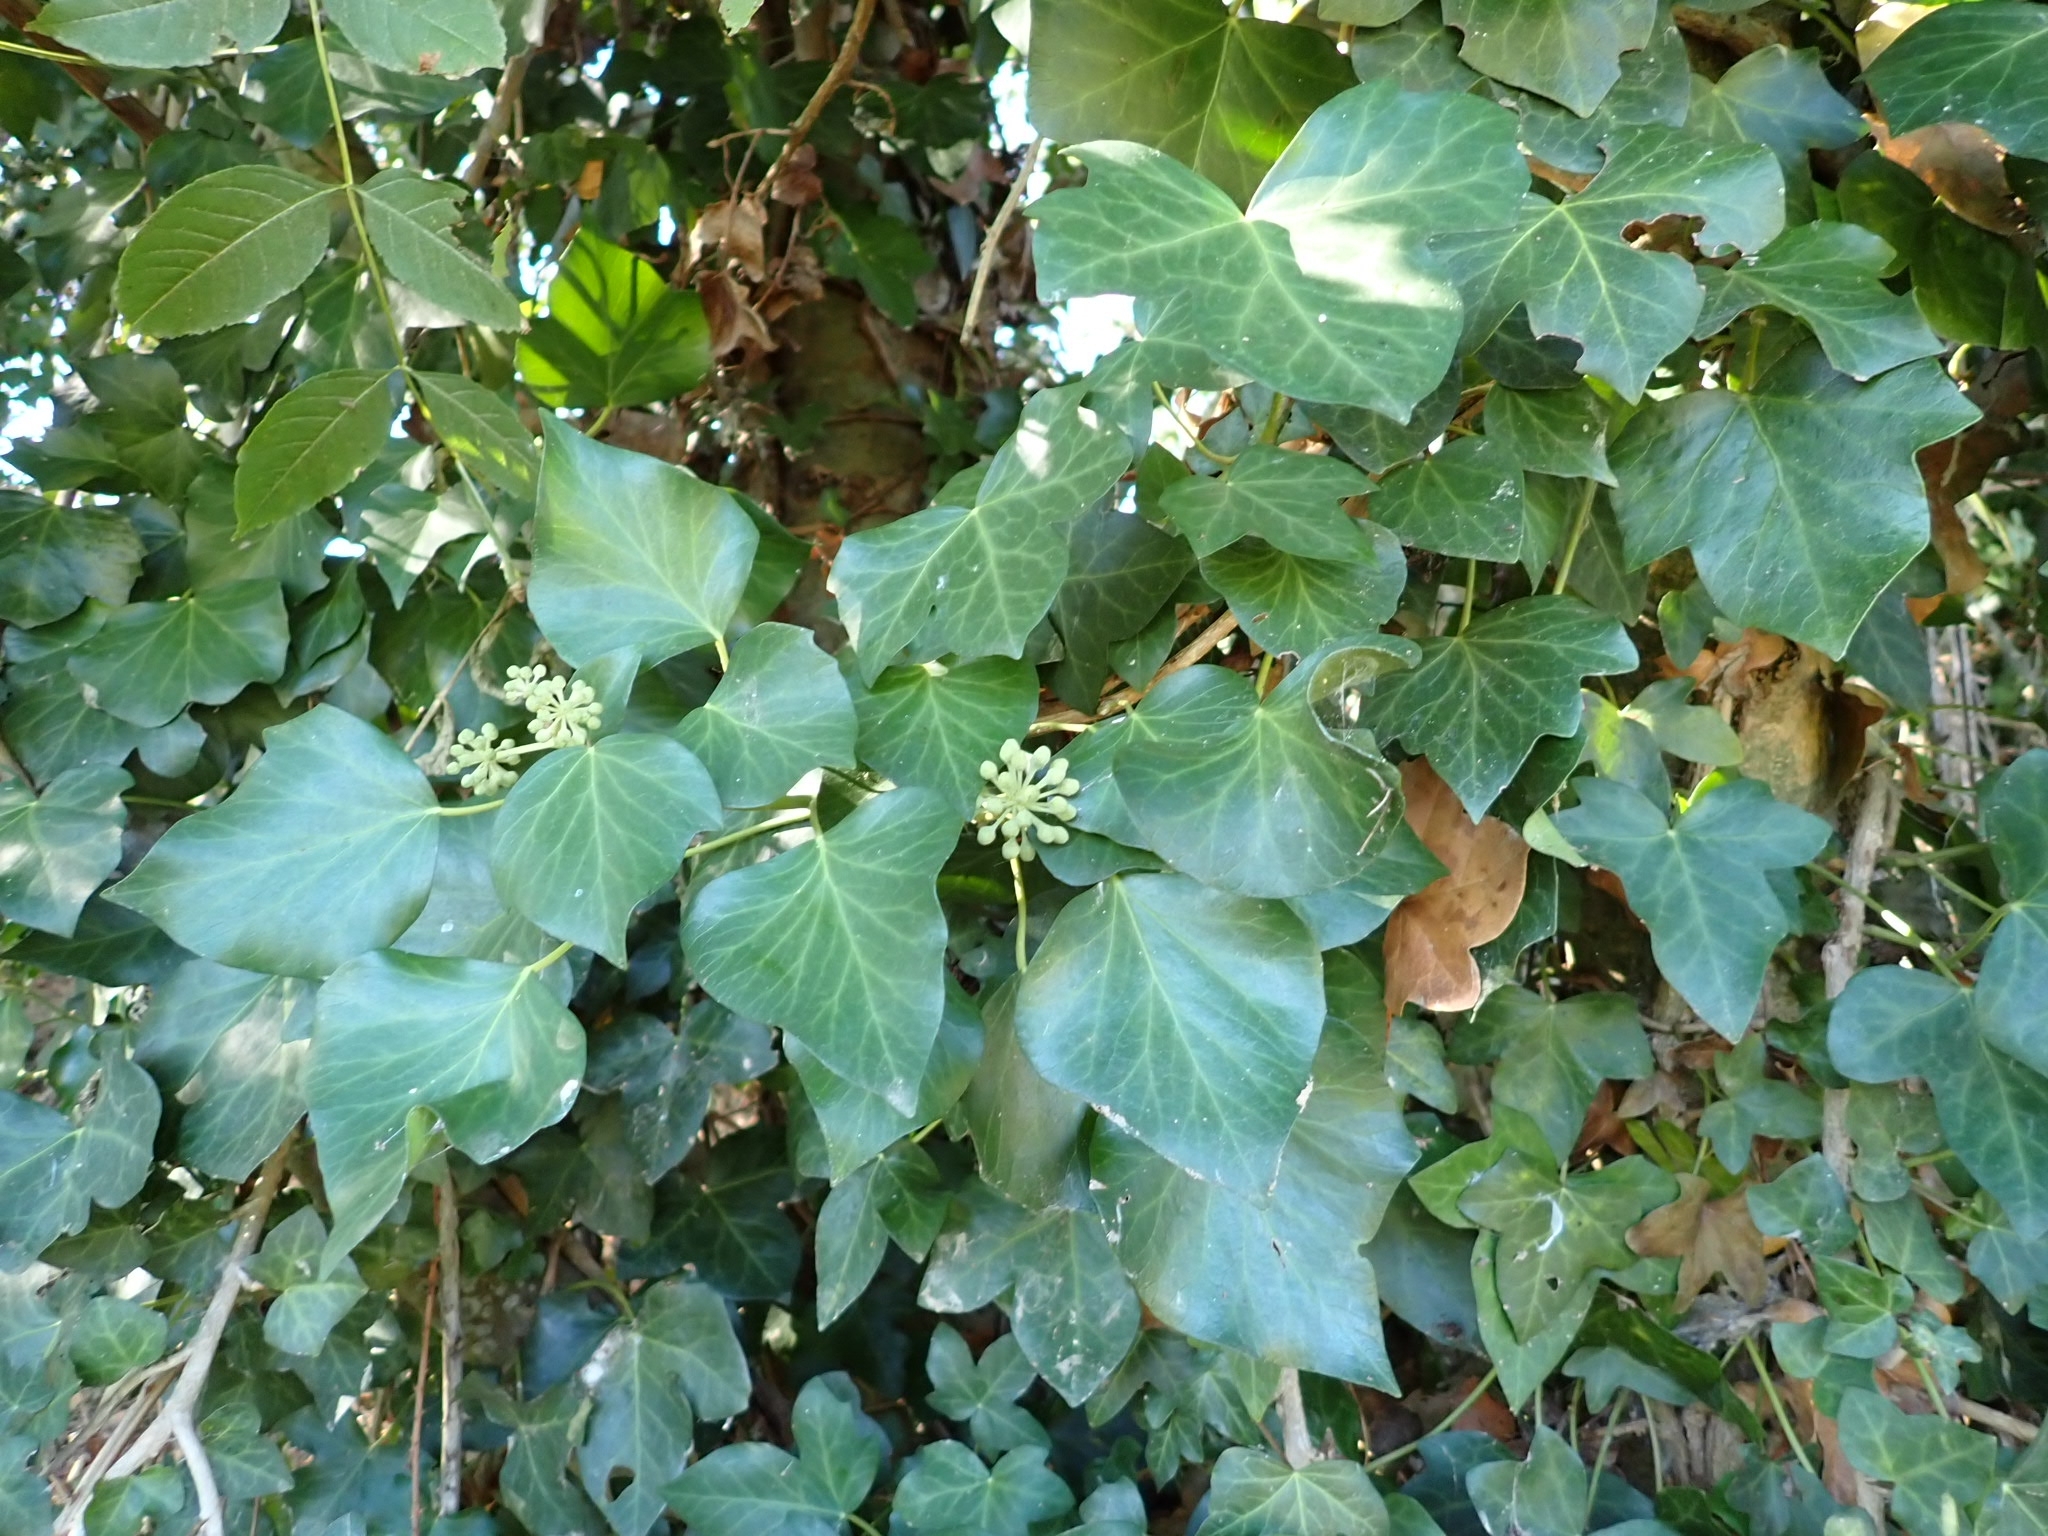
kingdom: Plantae
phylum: Tracheophyta
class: Magnoliopsida
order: Apiales
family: Araliaceae
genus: Hedera
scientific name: Hedera helix
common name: Ivy
